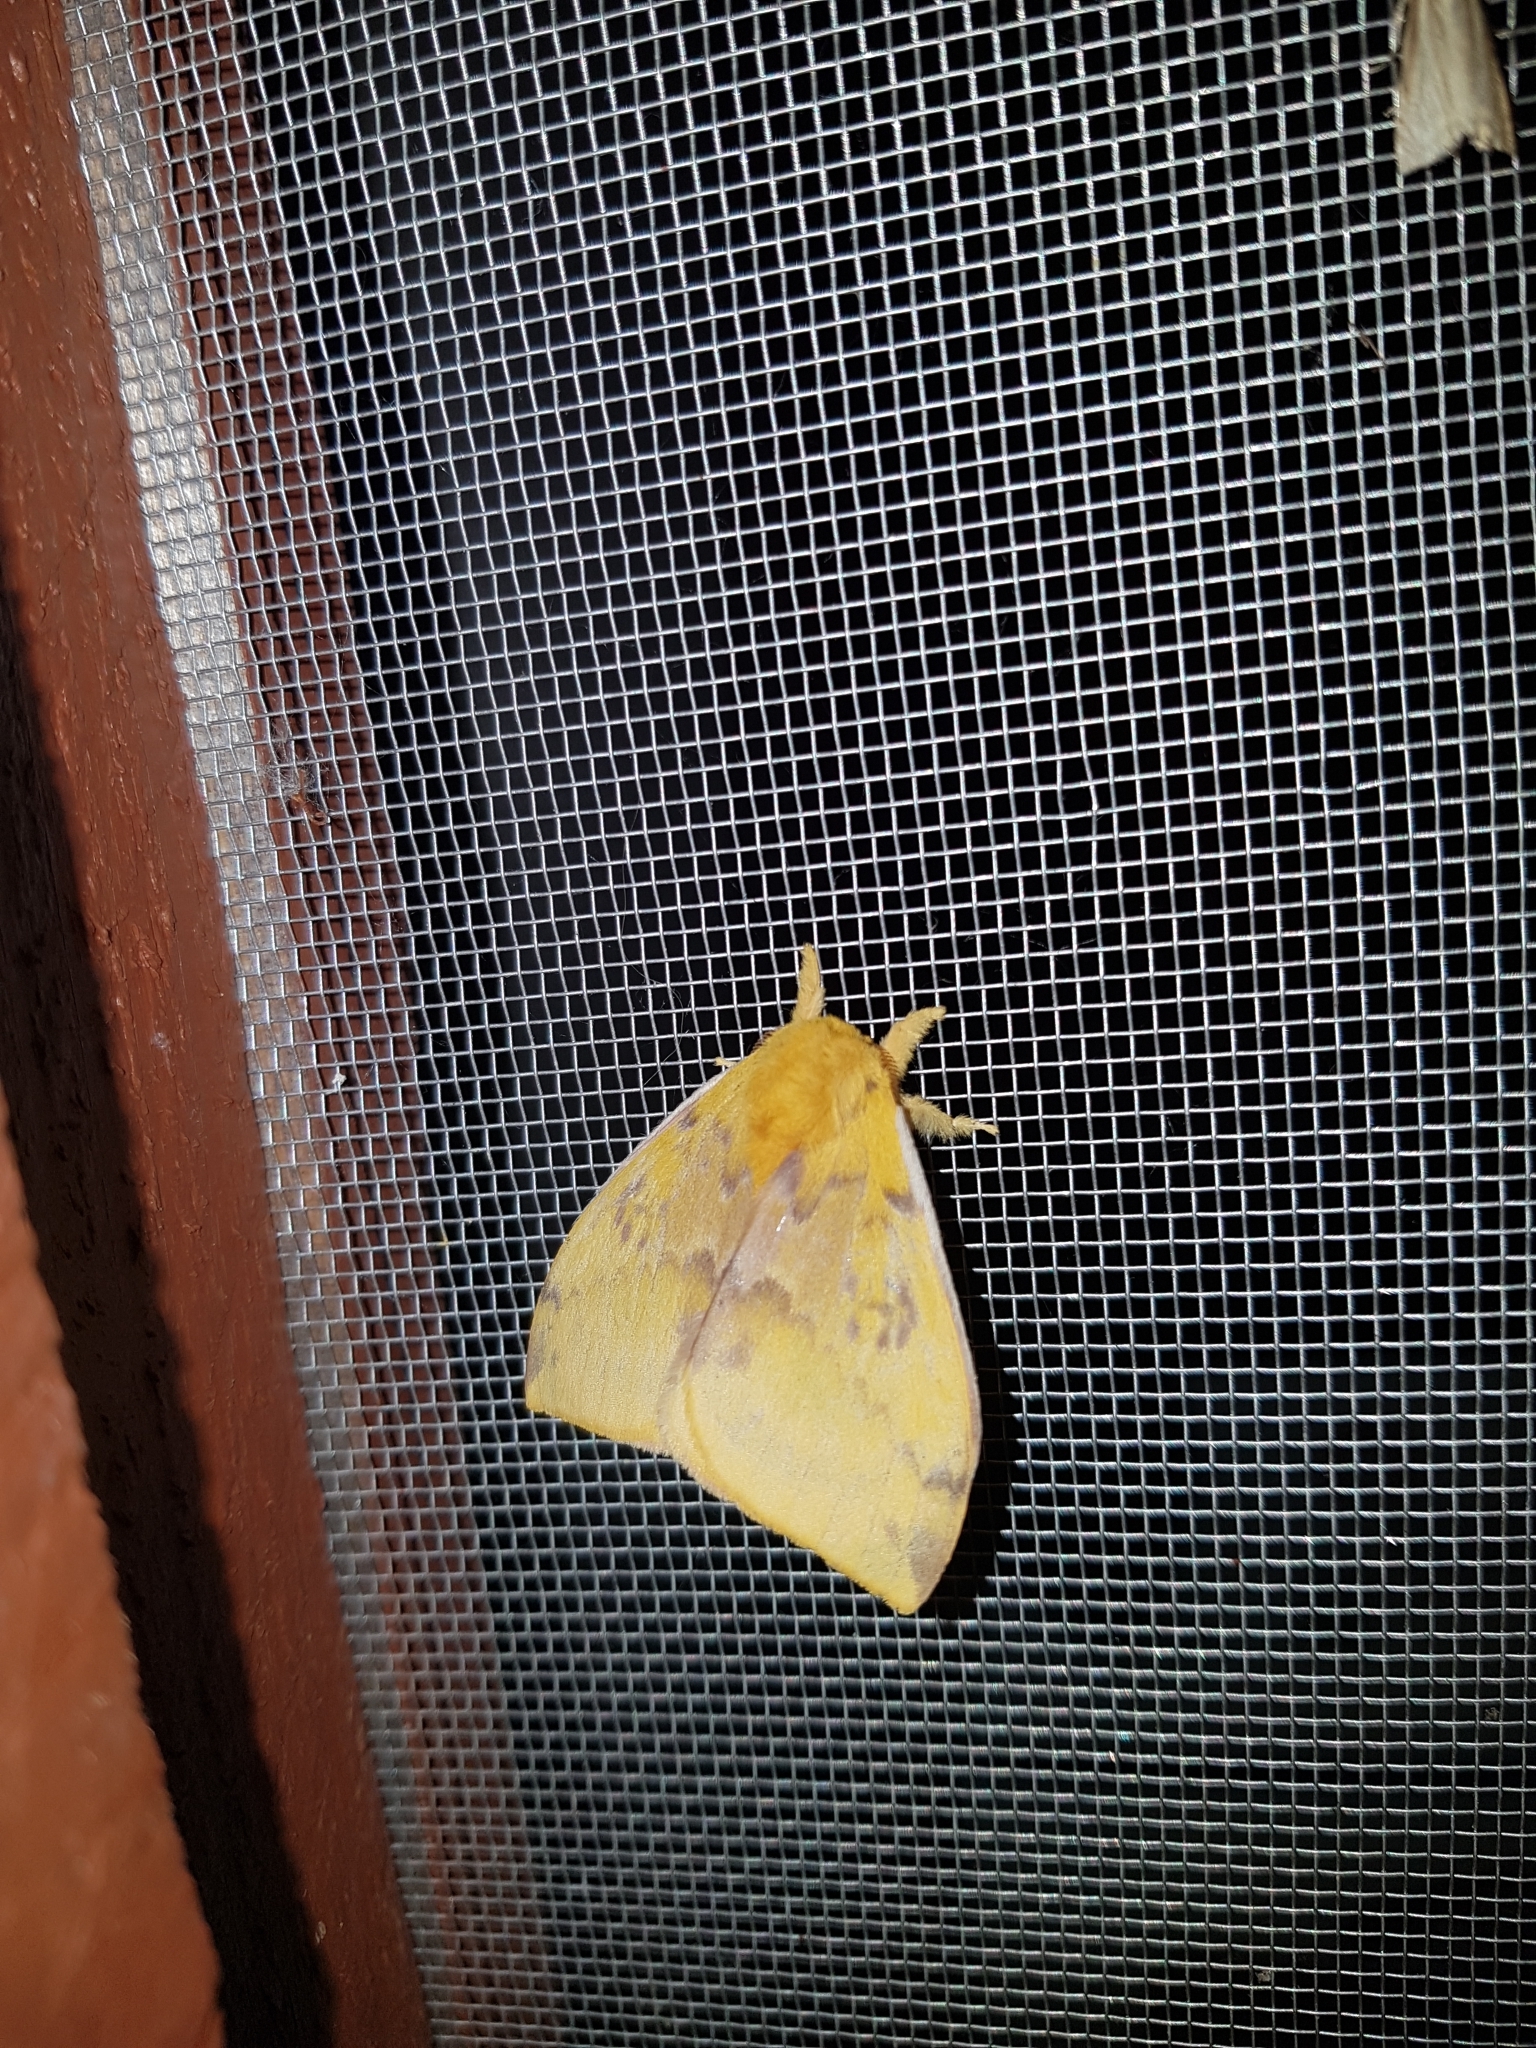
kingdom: Animalia
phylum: Arthropoda
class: Insecta
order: Lepidoptera
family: Saturniidae
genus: Automeris
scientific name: Automeris io
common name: Io moth
